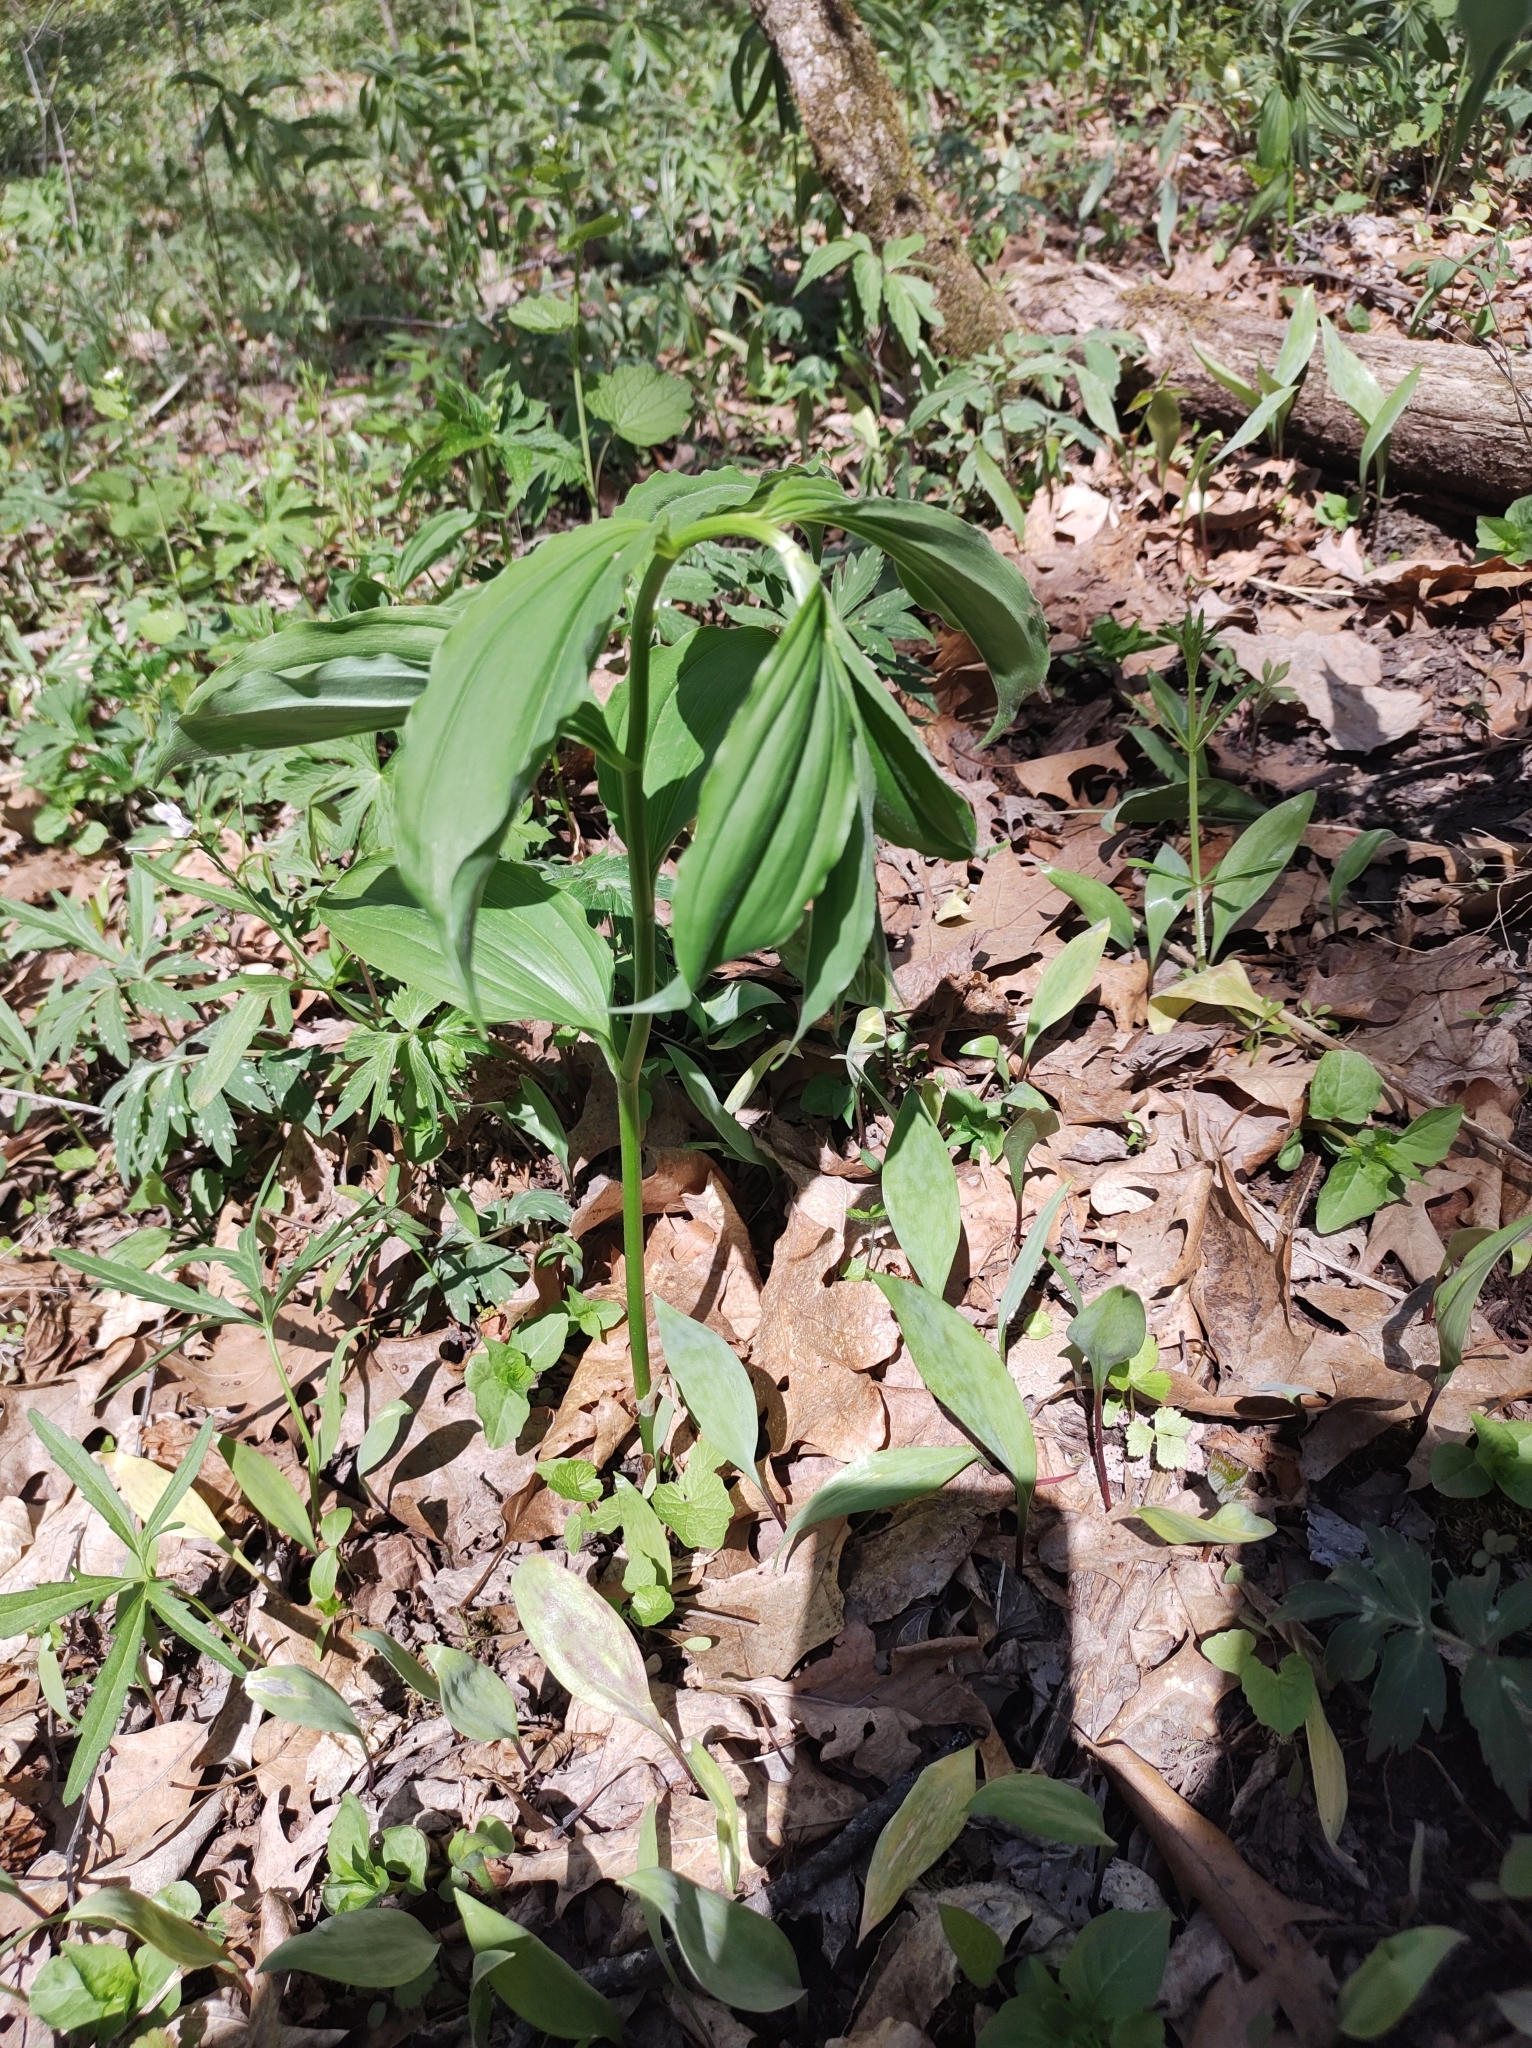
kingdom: Plantae
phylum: Tracheophyta
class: Liliopsida
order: Asparagales
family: Asparagaceae
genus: Maianthemum
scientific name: Maianthemum racemosum
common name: False spikenard
